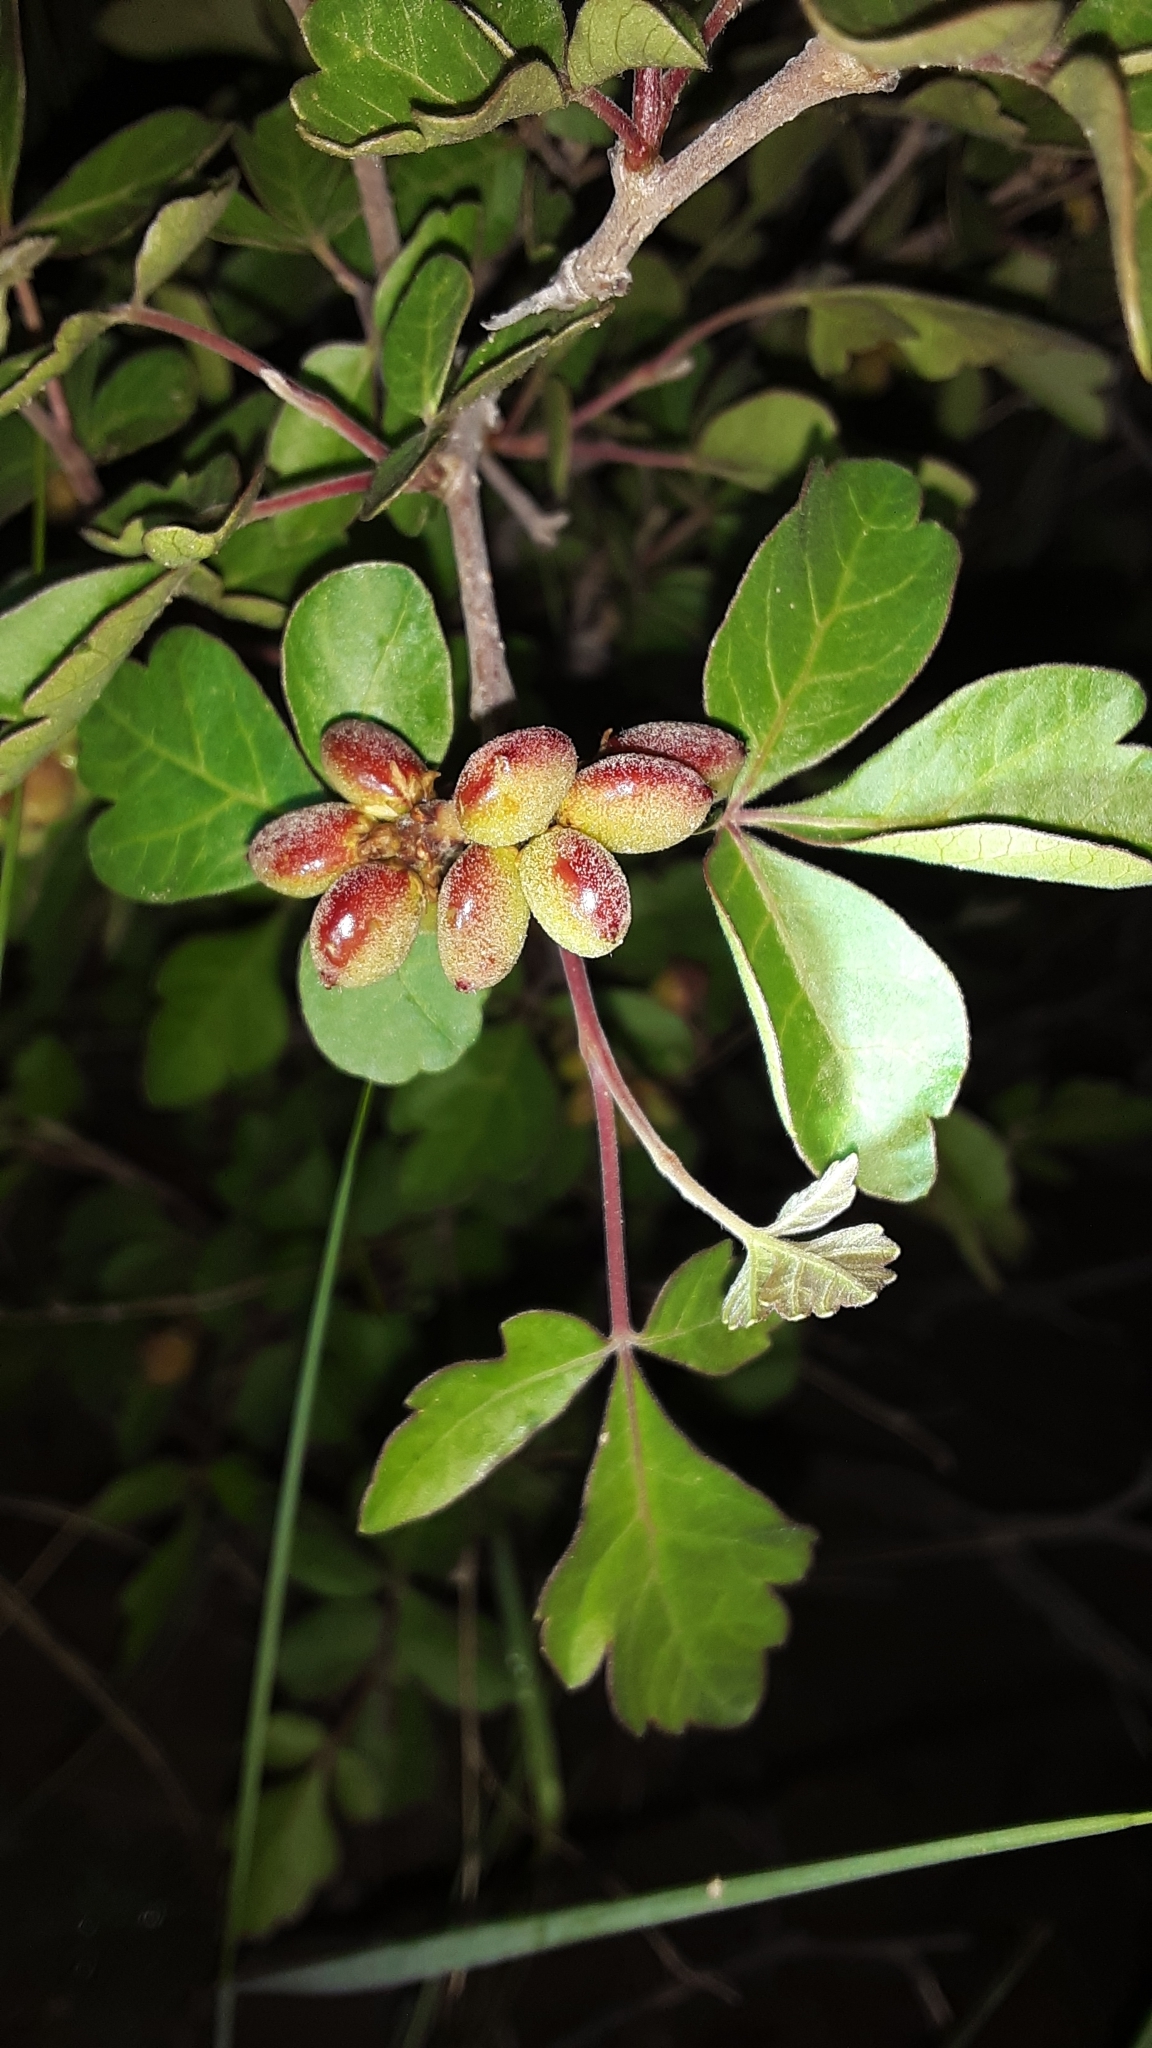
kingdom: Plantae
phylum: Tracheophyta
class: Magnoliopsida
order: Sapindales
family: Anacardiaceae
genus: Rhus
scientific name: Rhus aromatica
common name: Aromatic sumac
